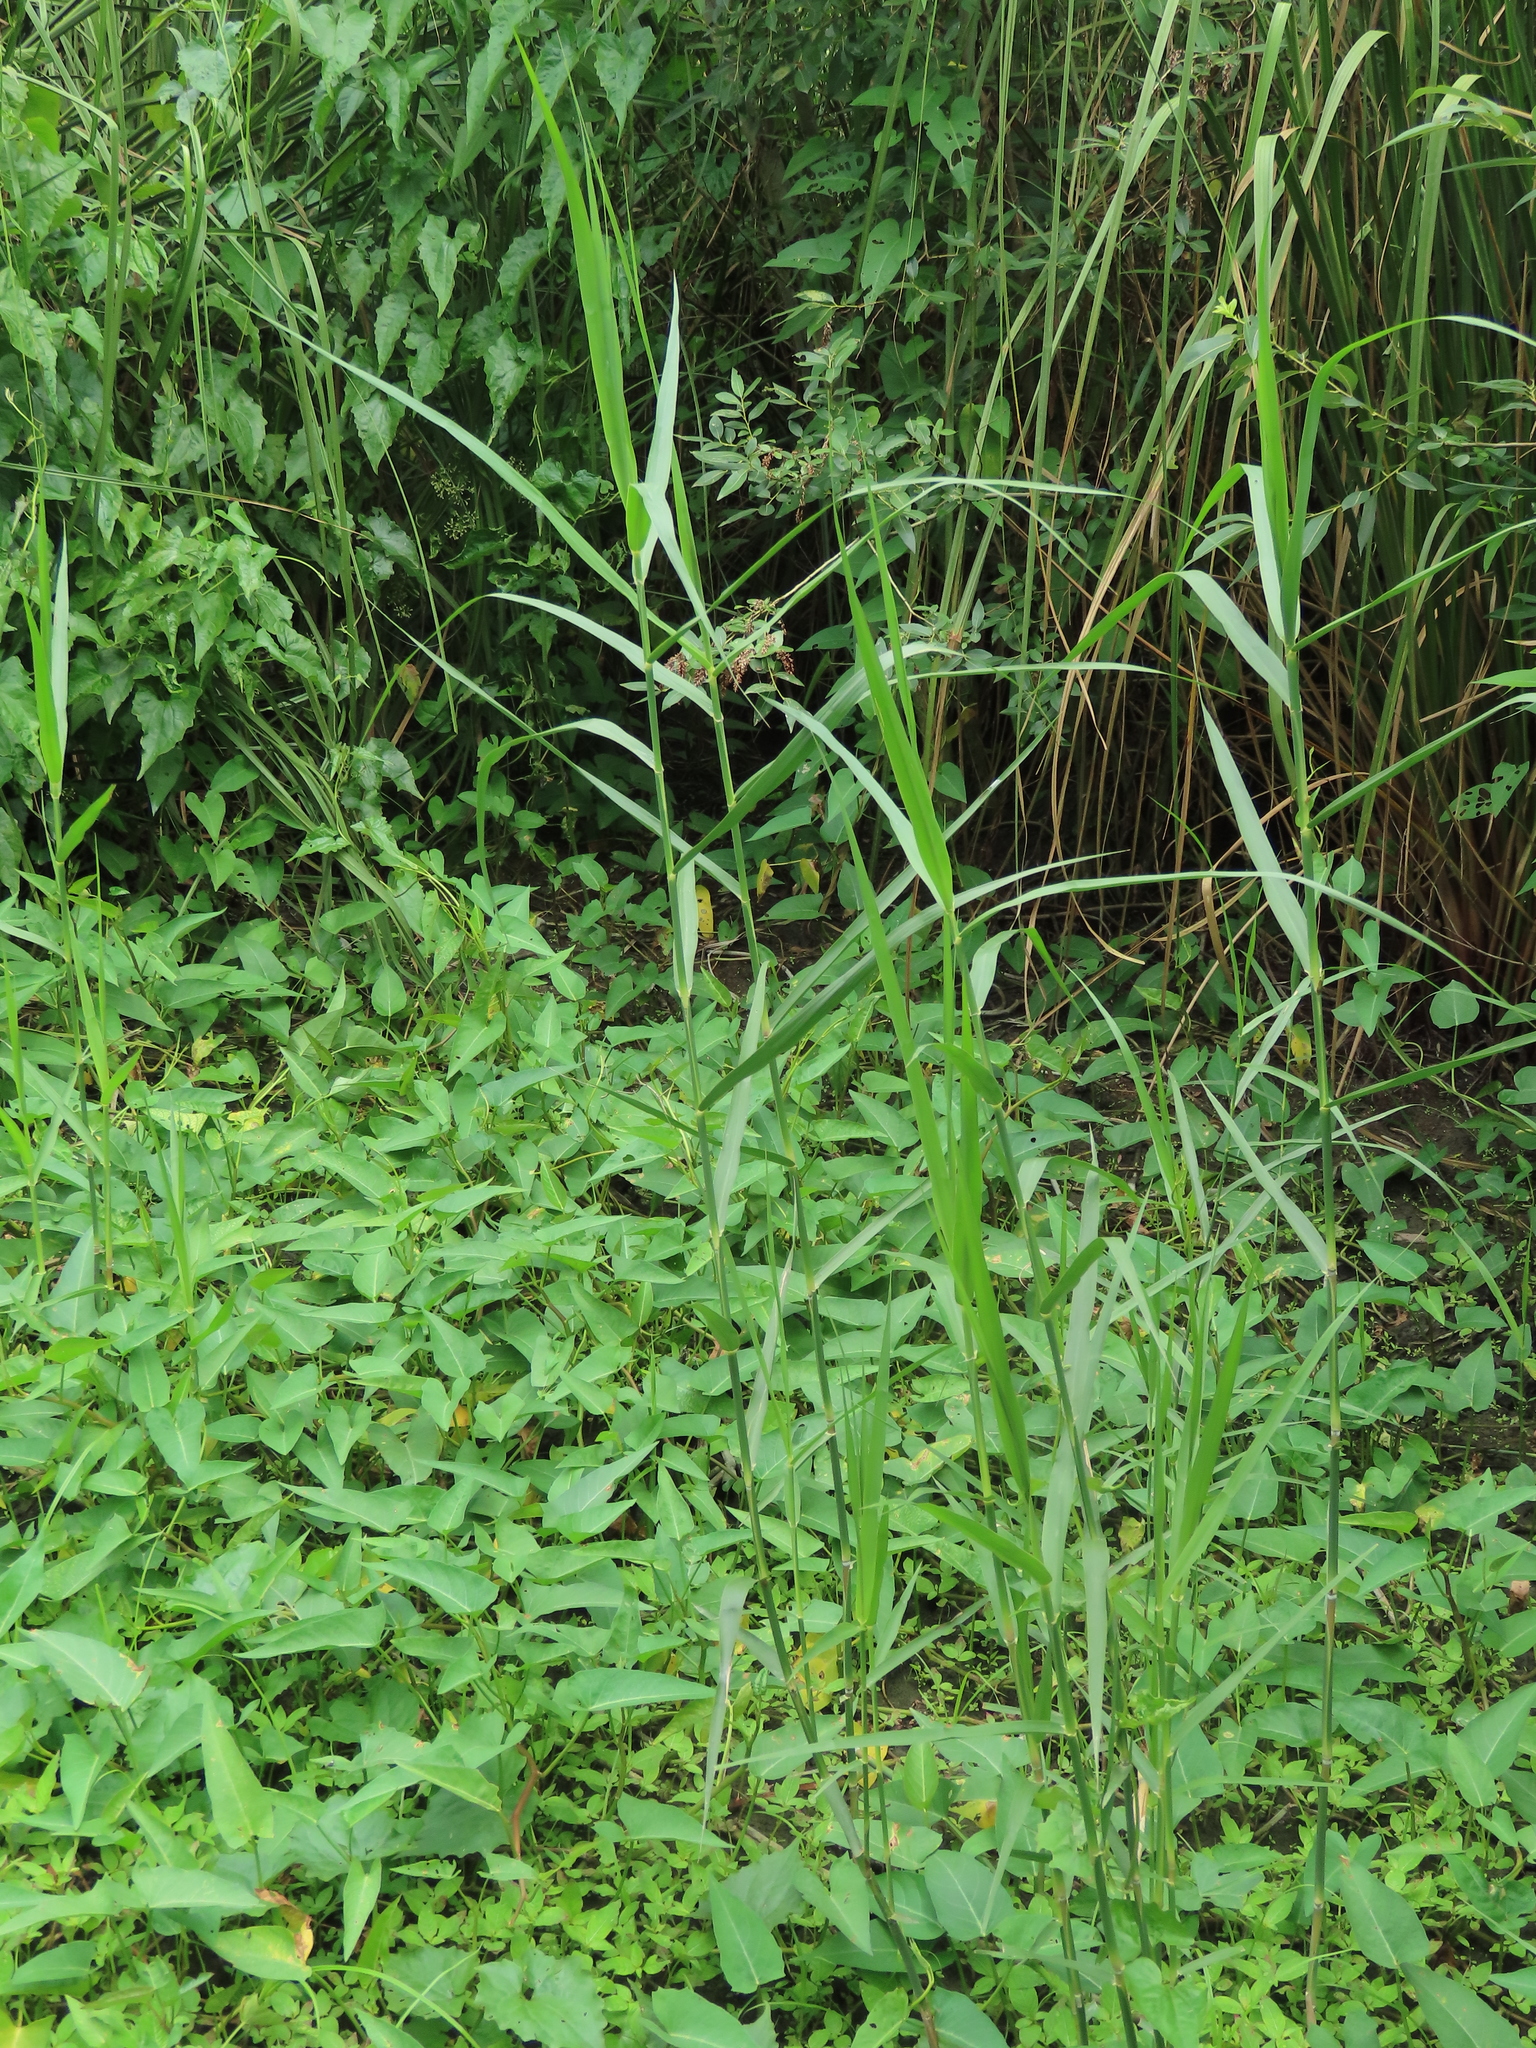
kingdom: Plantae
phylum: Tracheophyta
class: Liliopsida
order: Poales
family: Poaceae
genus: Phragmites
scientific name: Phragmites karka
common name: Tropical reed
